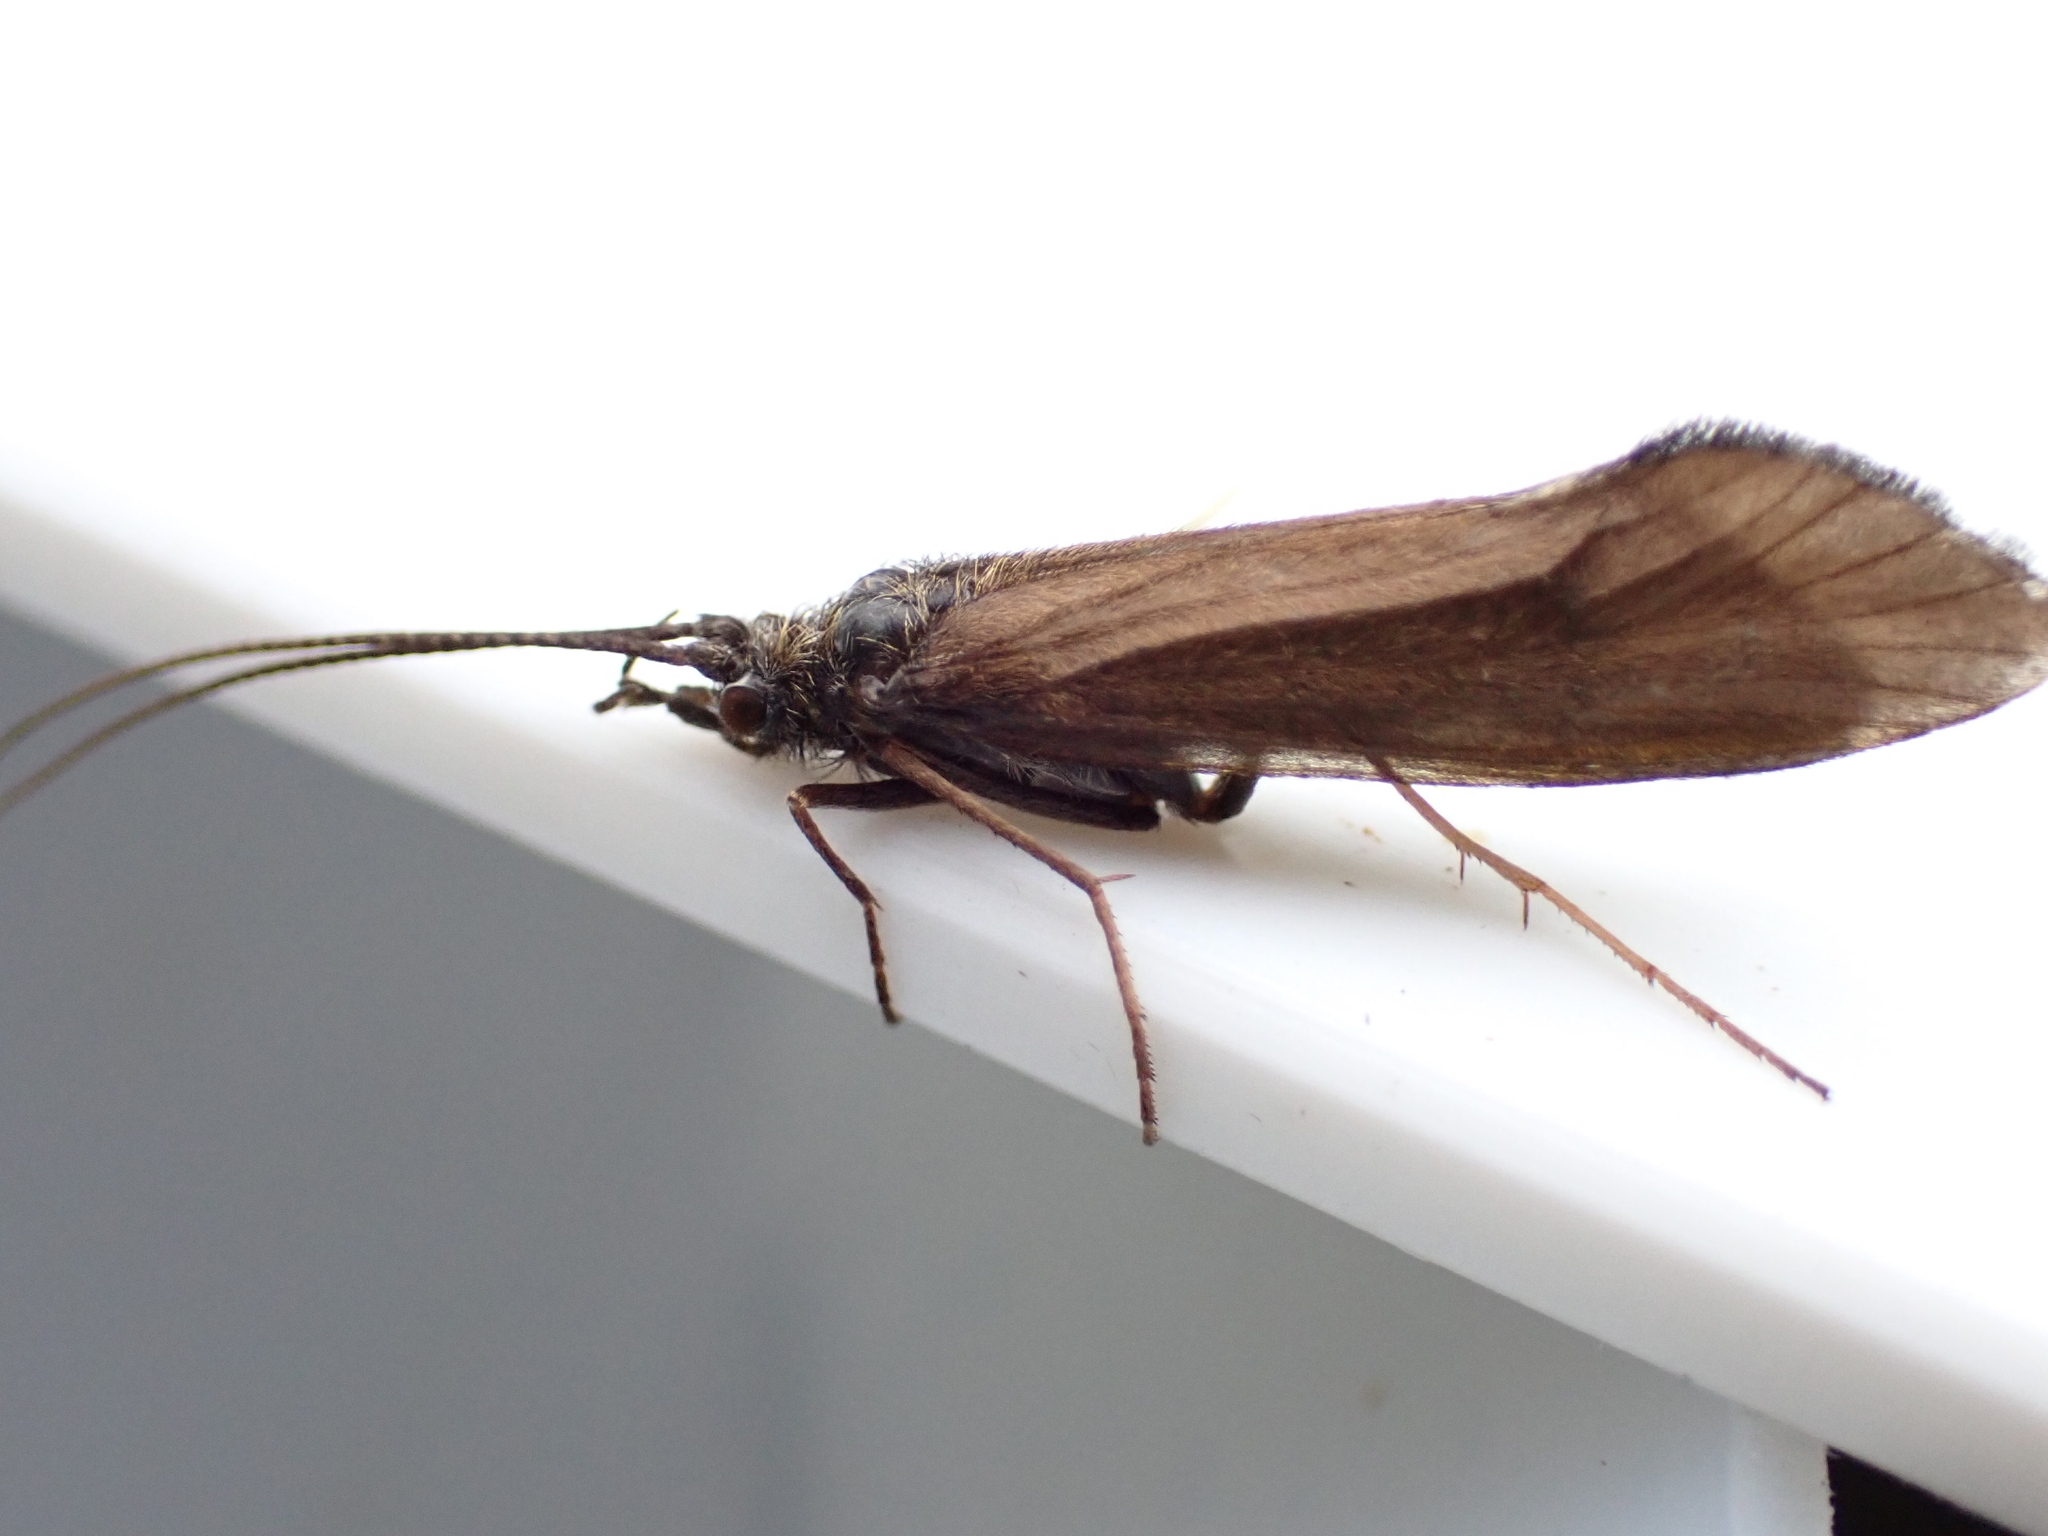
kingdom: Animalia
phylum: Arthropoda
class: Insecta
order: Trichoptera
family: Sericostomatidae
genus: Sericostoma
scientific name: Sericostoma personatum
